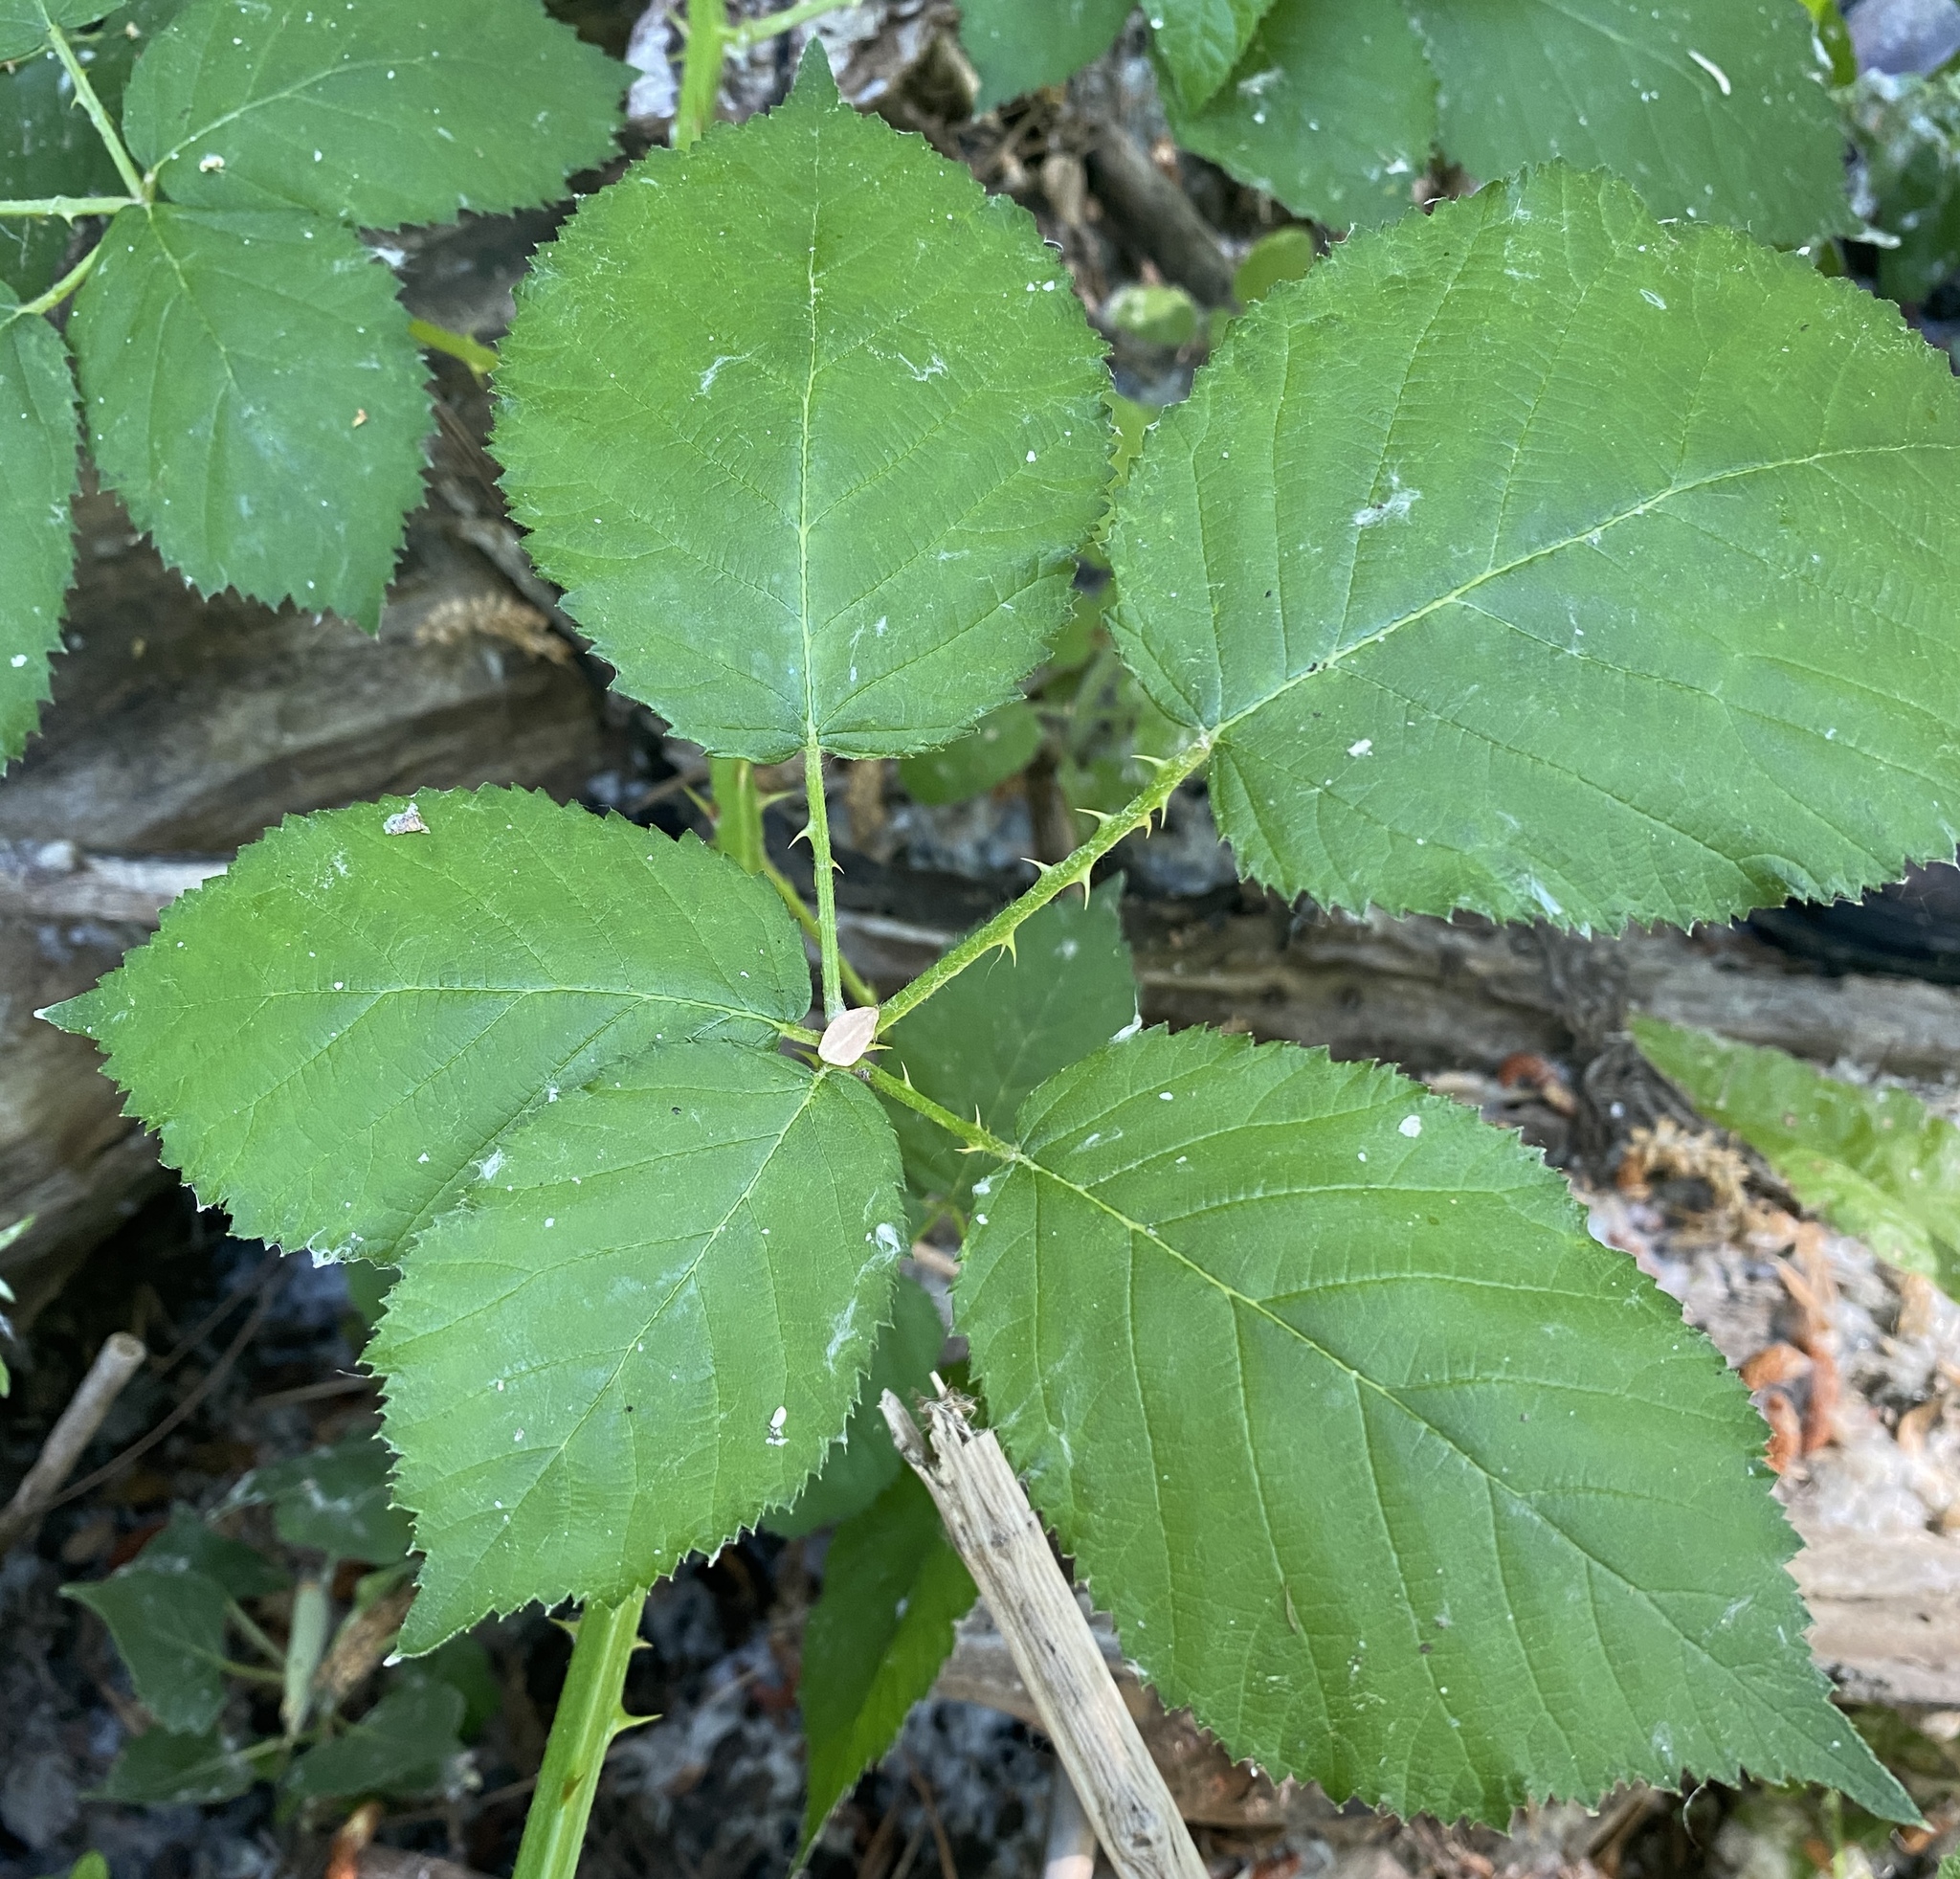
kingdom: Plantae
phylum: Tracheophyta
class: Magnoliopsida
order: Rosales
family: Rosaceae
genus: Rubus
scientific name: Rubus bifrons
